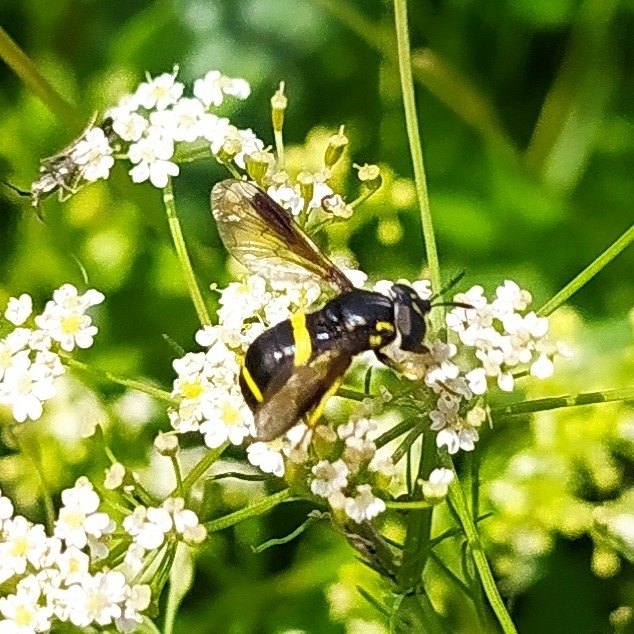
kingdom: Animalia
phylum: Arthropoda
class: Insecta
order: Diptera
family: Syrphidae
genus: Chrysotoxum
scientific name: Chrysotoxum bicincta
